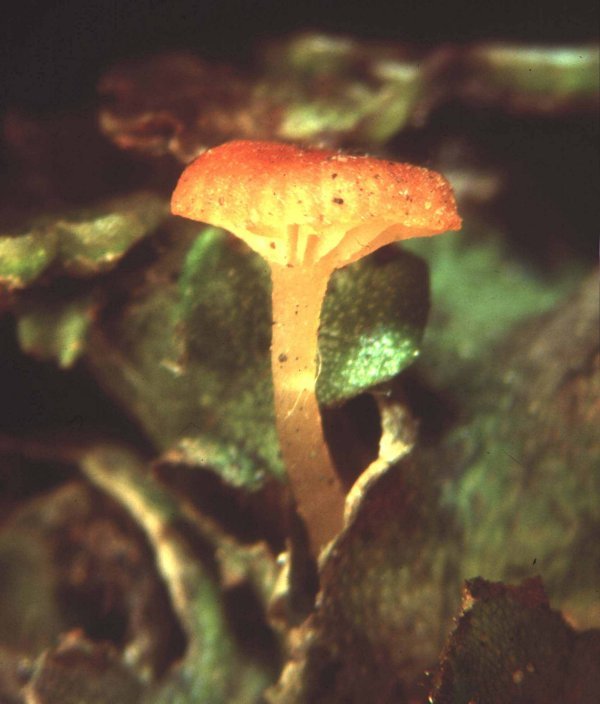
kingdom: Fungi
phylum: Basidiomycota
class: Agaricomycetes
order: Hymenochaetales
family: Rickenellaceae
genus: Loreleia
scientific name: Loreleia marchantiae
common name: Liverwort navel
